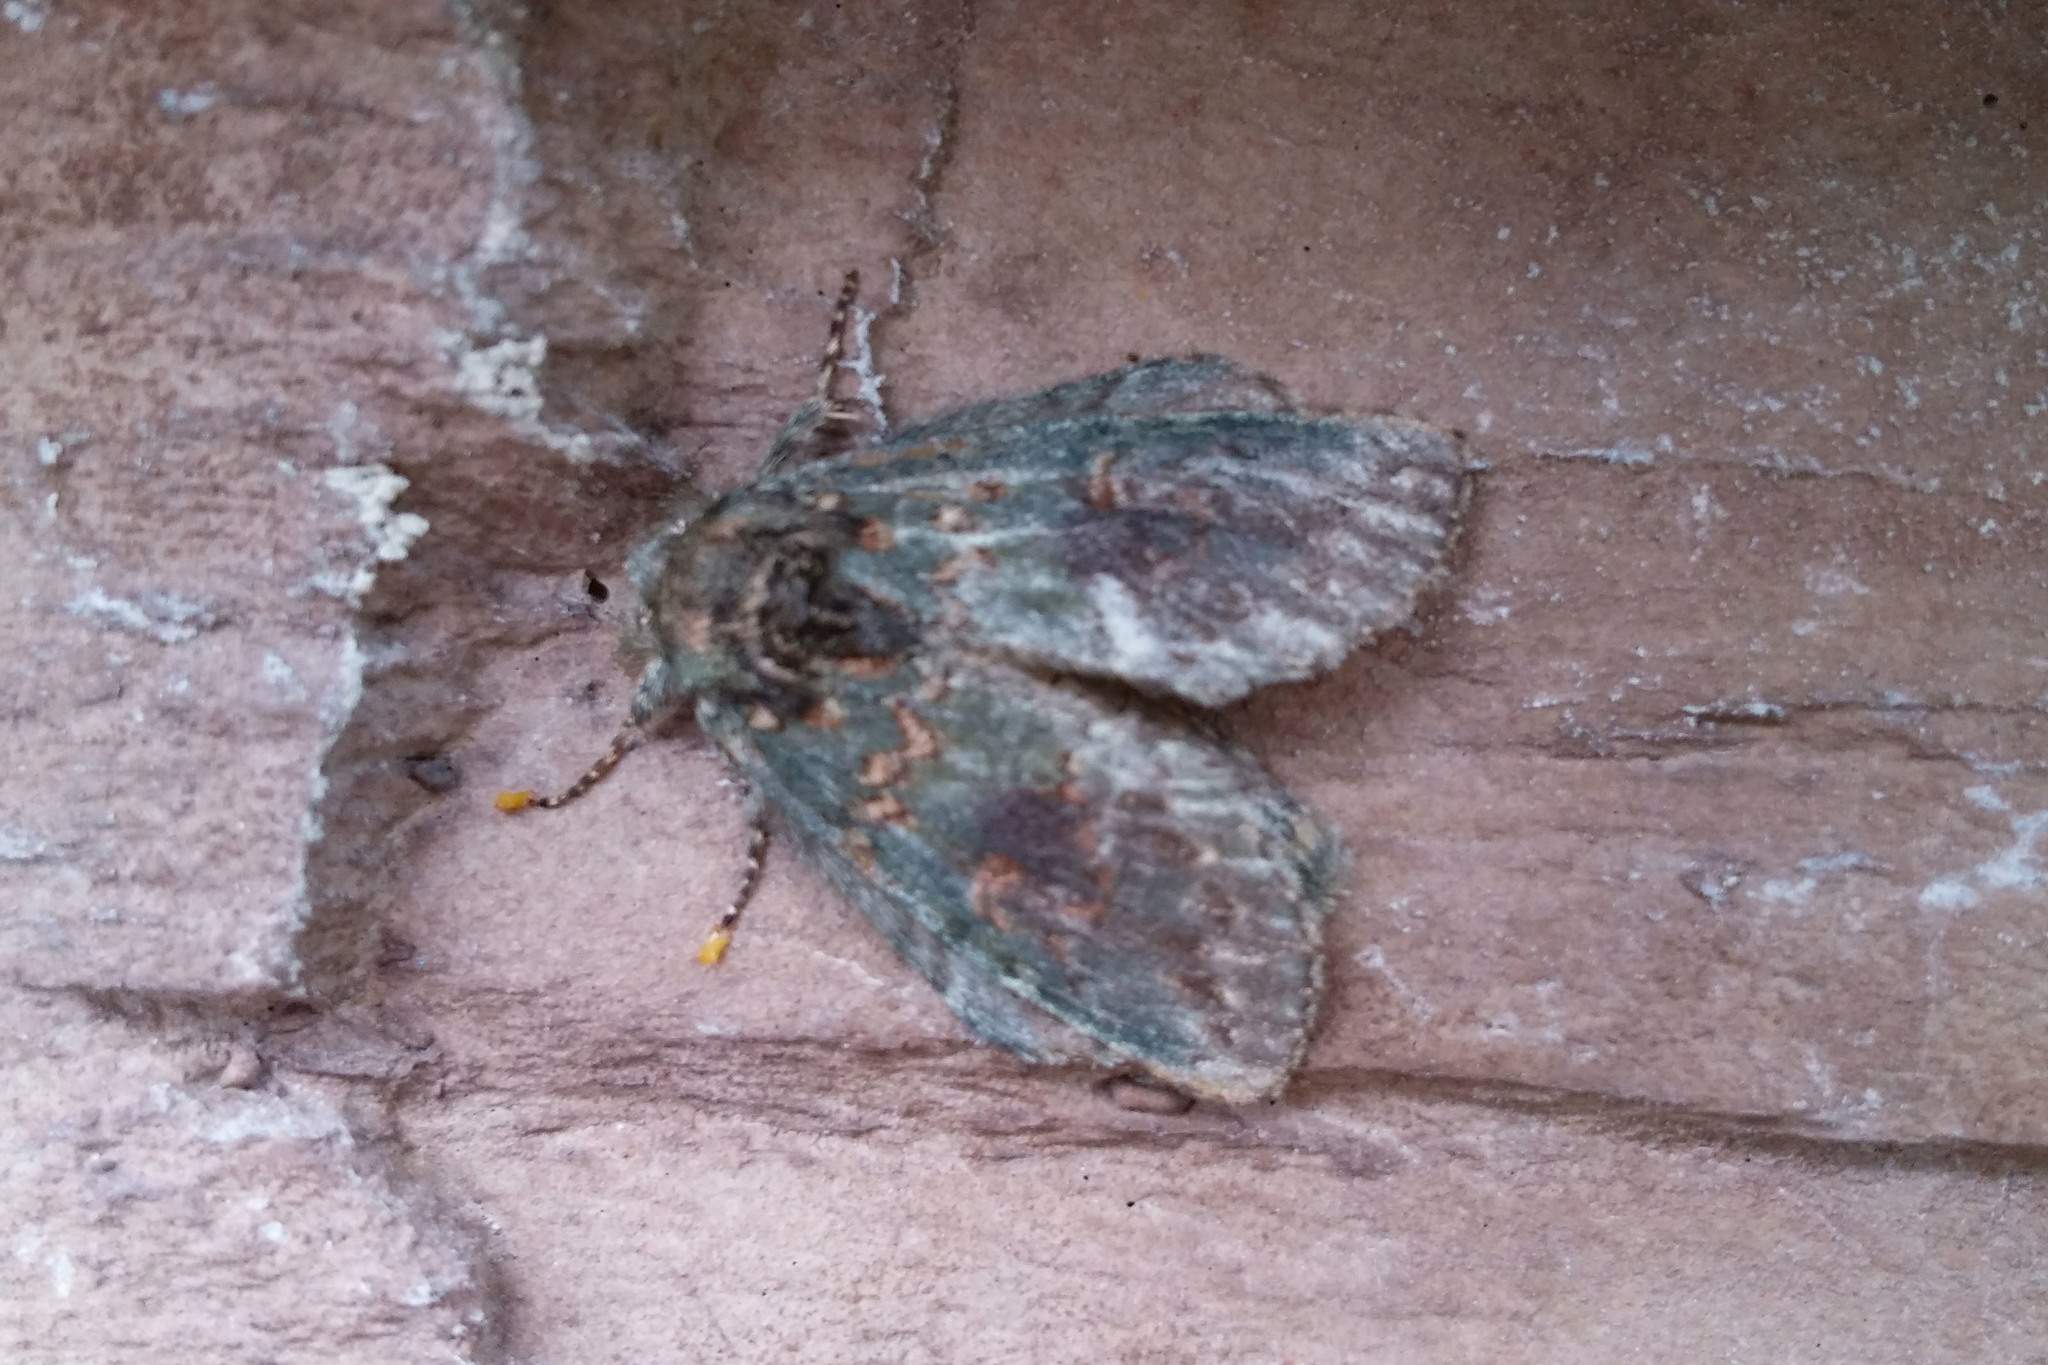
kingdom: Animalia
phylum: Arthropoda
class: Insecta
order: Lepidoptera
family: Notodontidae
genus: Disphragis
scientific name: Disphragis Cecrita biundata
